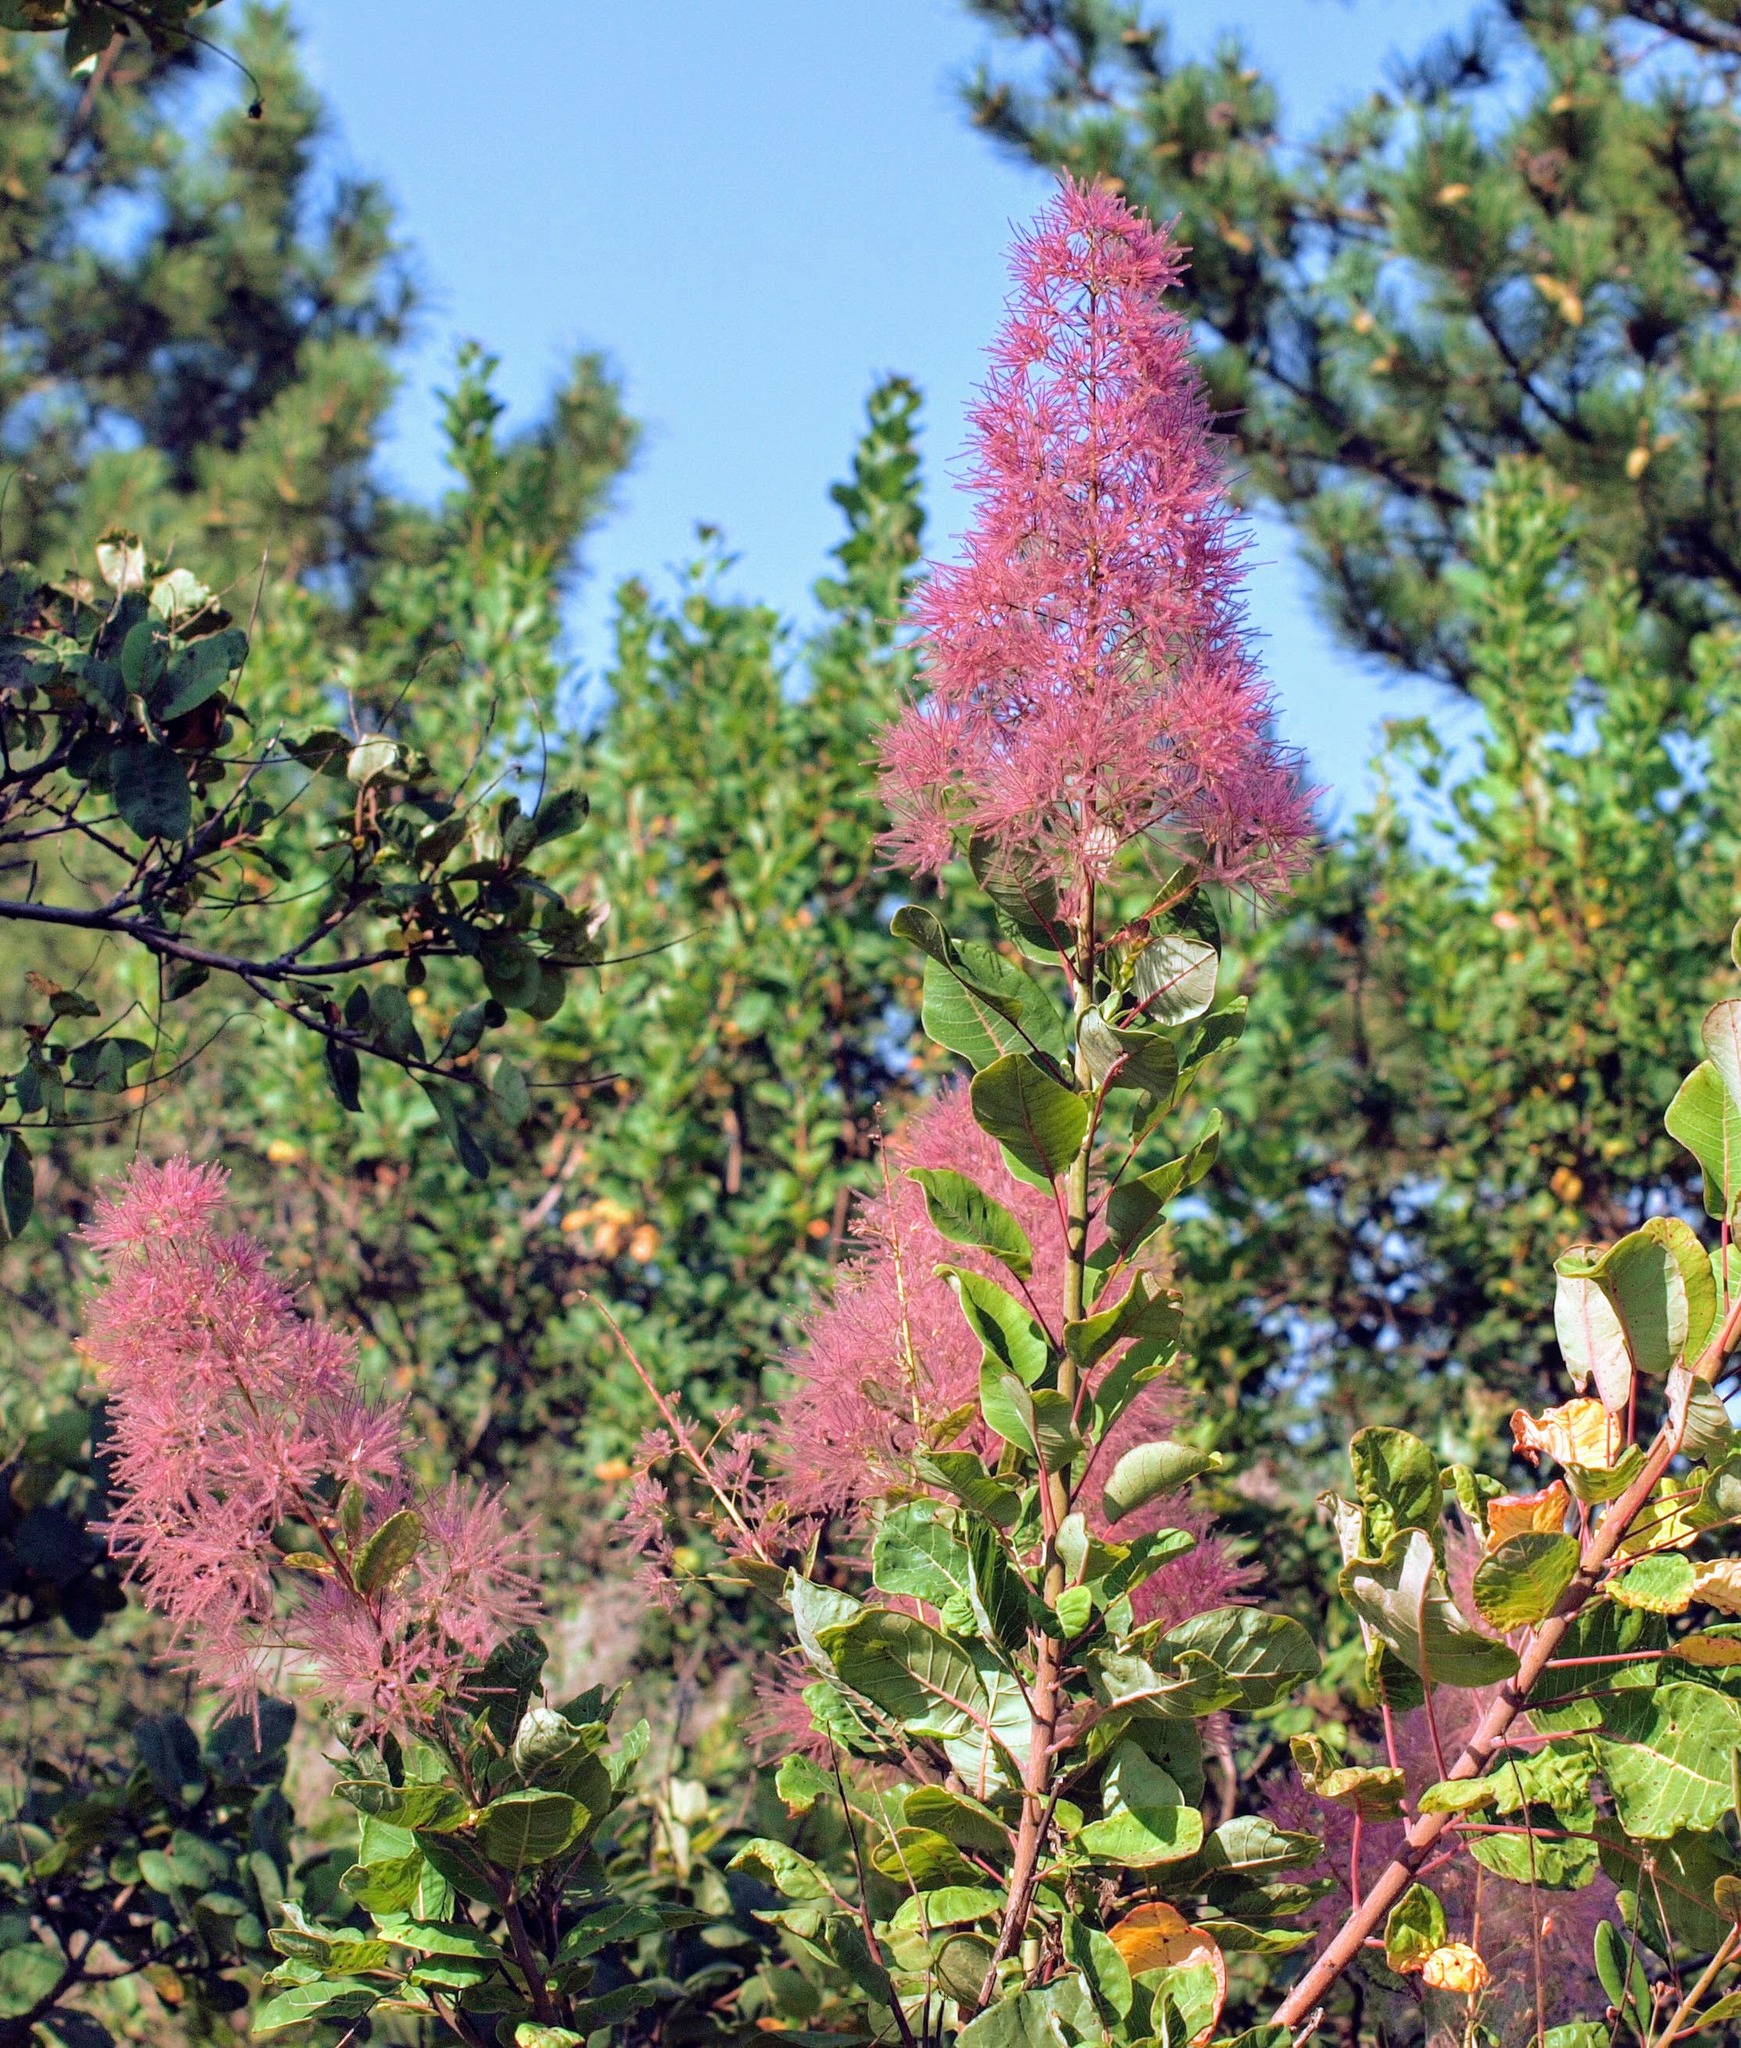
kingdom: Plantae
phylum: Tracheophyta
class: Magnoliopsida
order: Sapindales
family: Anacardiaceae
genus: Cotinus
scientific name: Cotinus coggygria
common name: Smoke-tree
